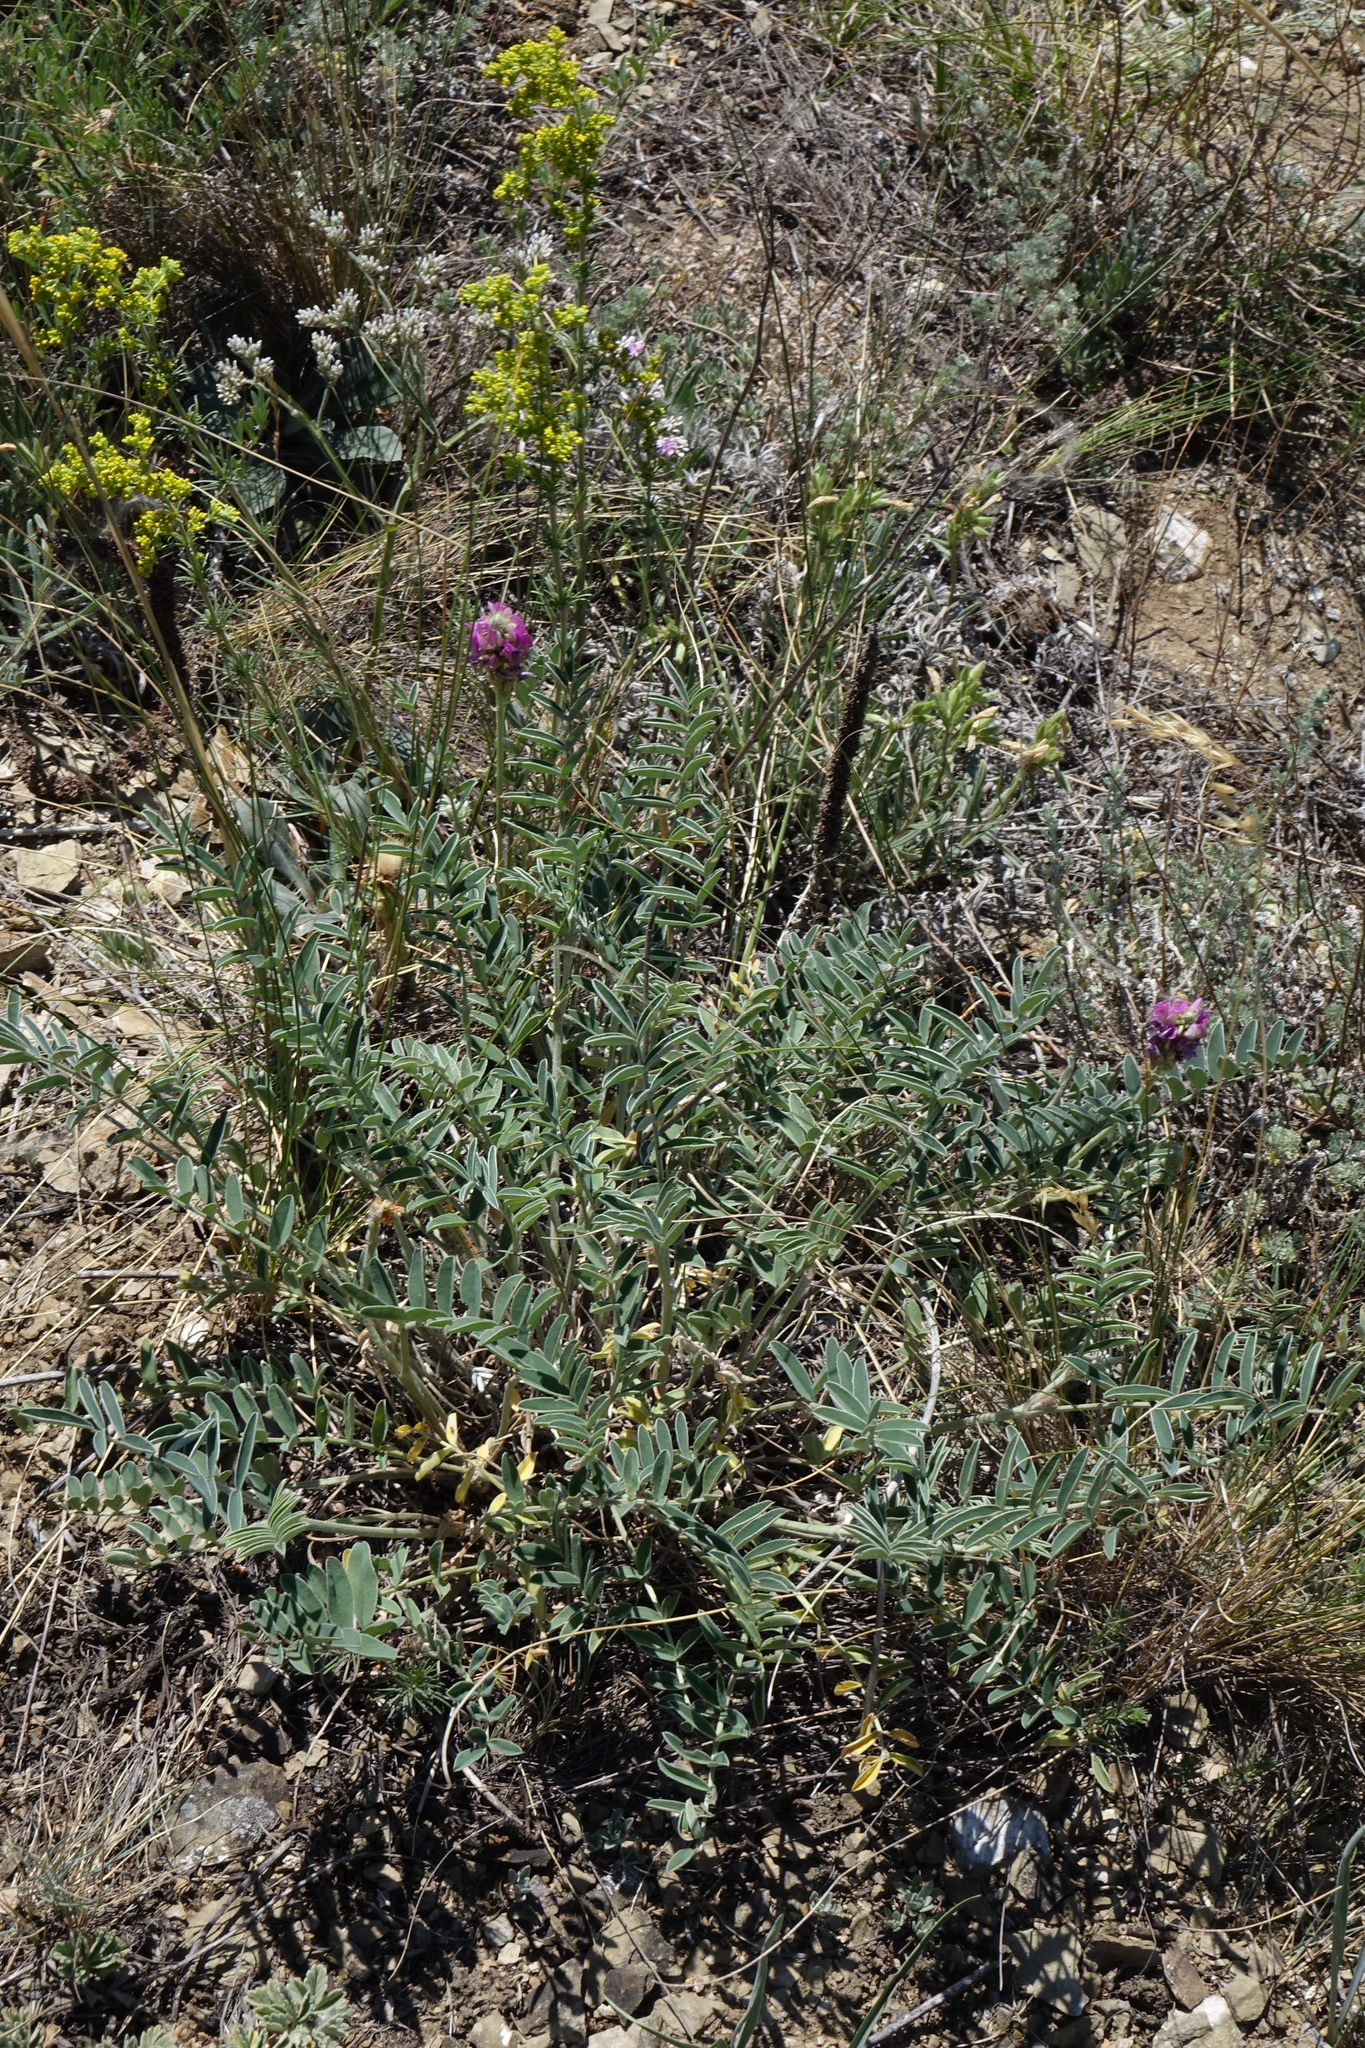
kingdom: Plantae
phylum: Tracheophyta
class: Magnoliopsida
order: Fabales
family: Fabaceae
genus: Hedysarum
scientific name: Hedysarum gmelinii
